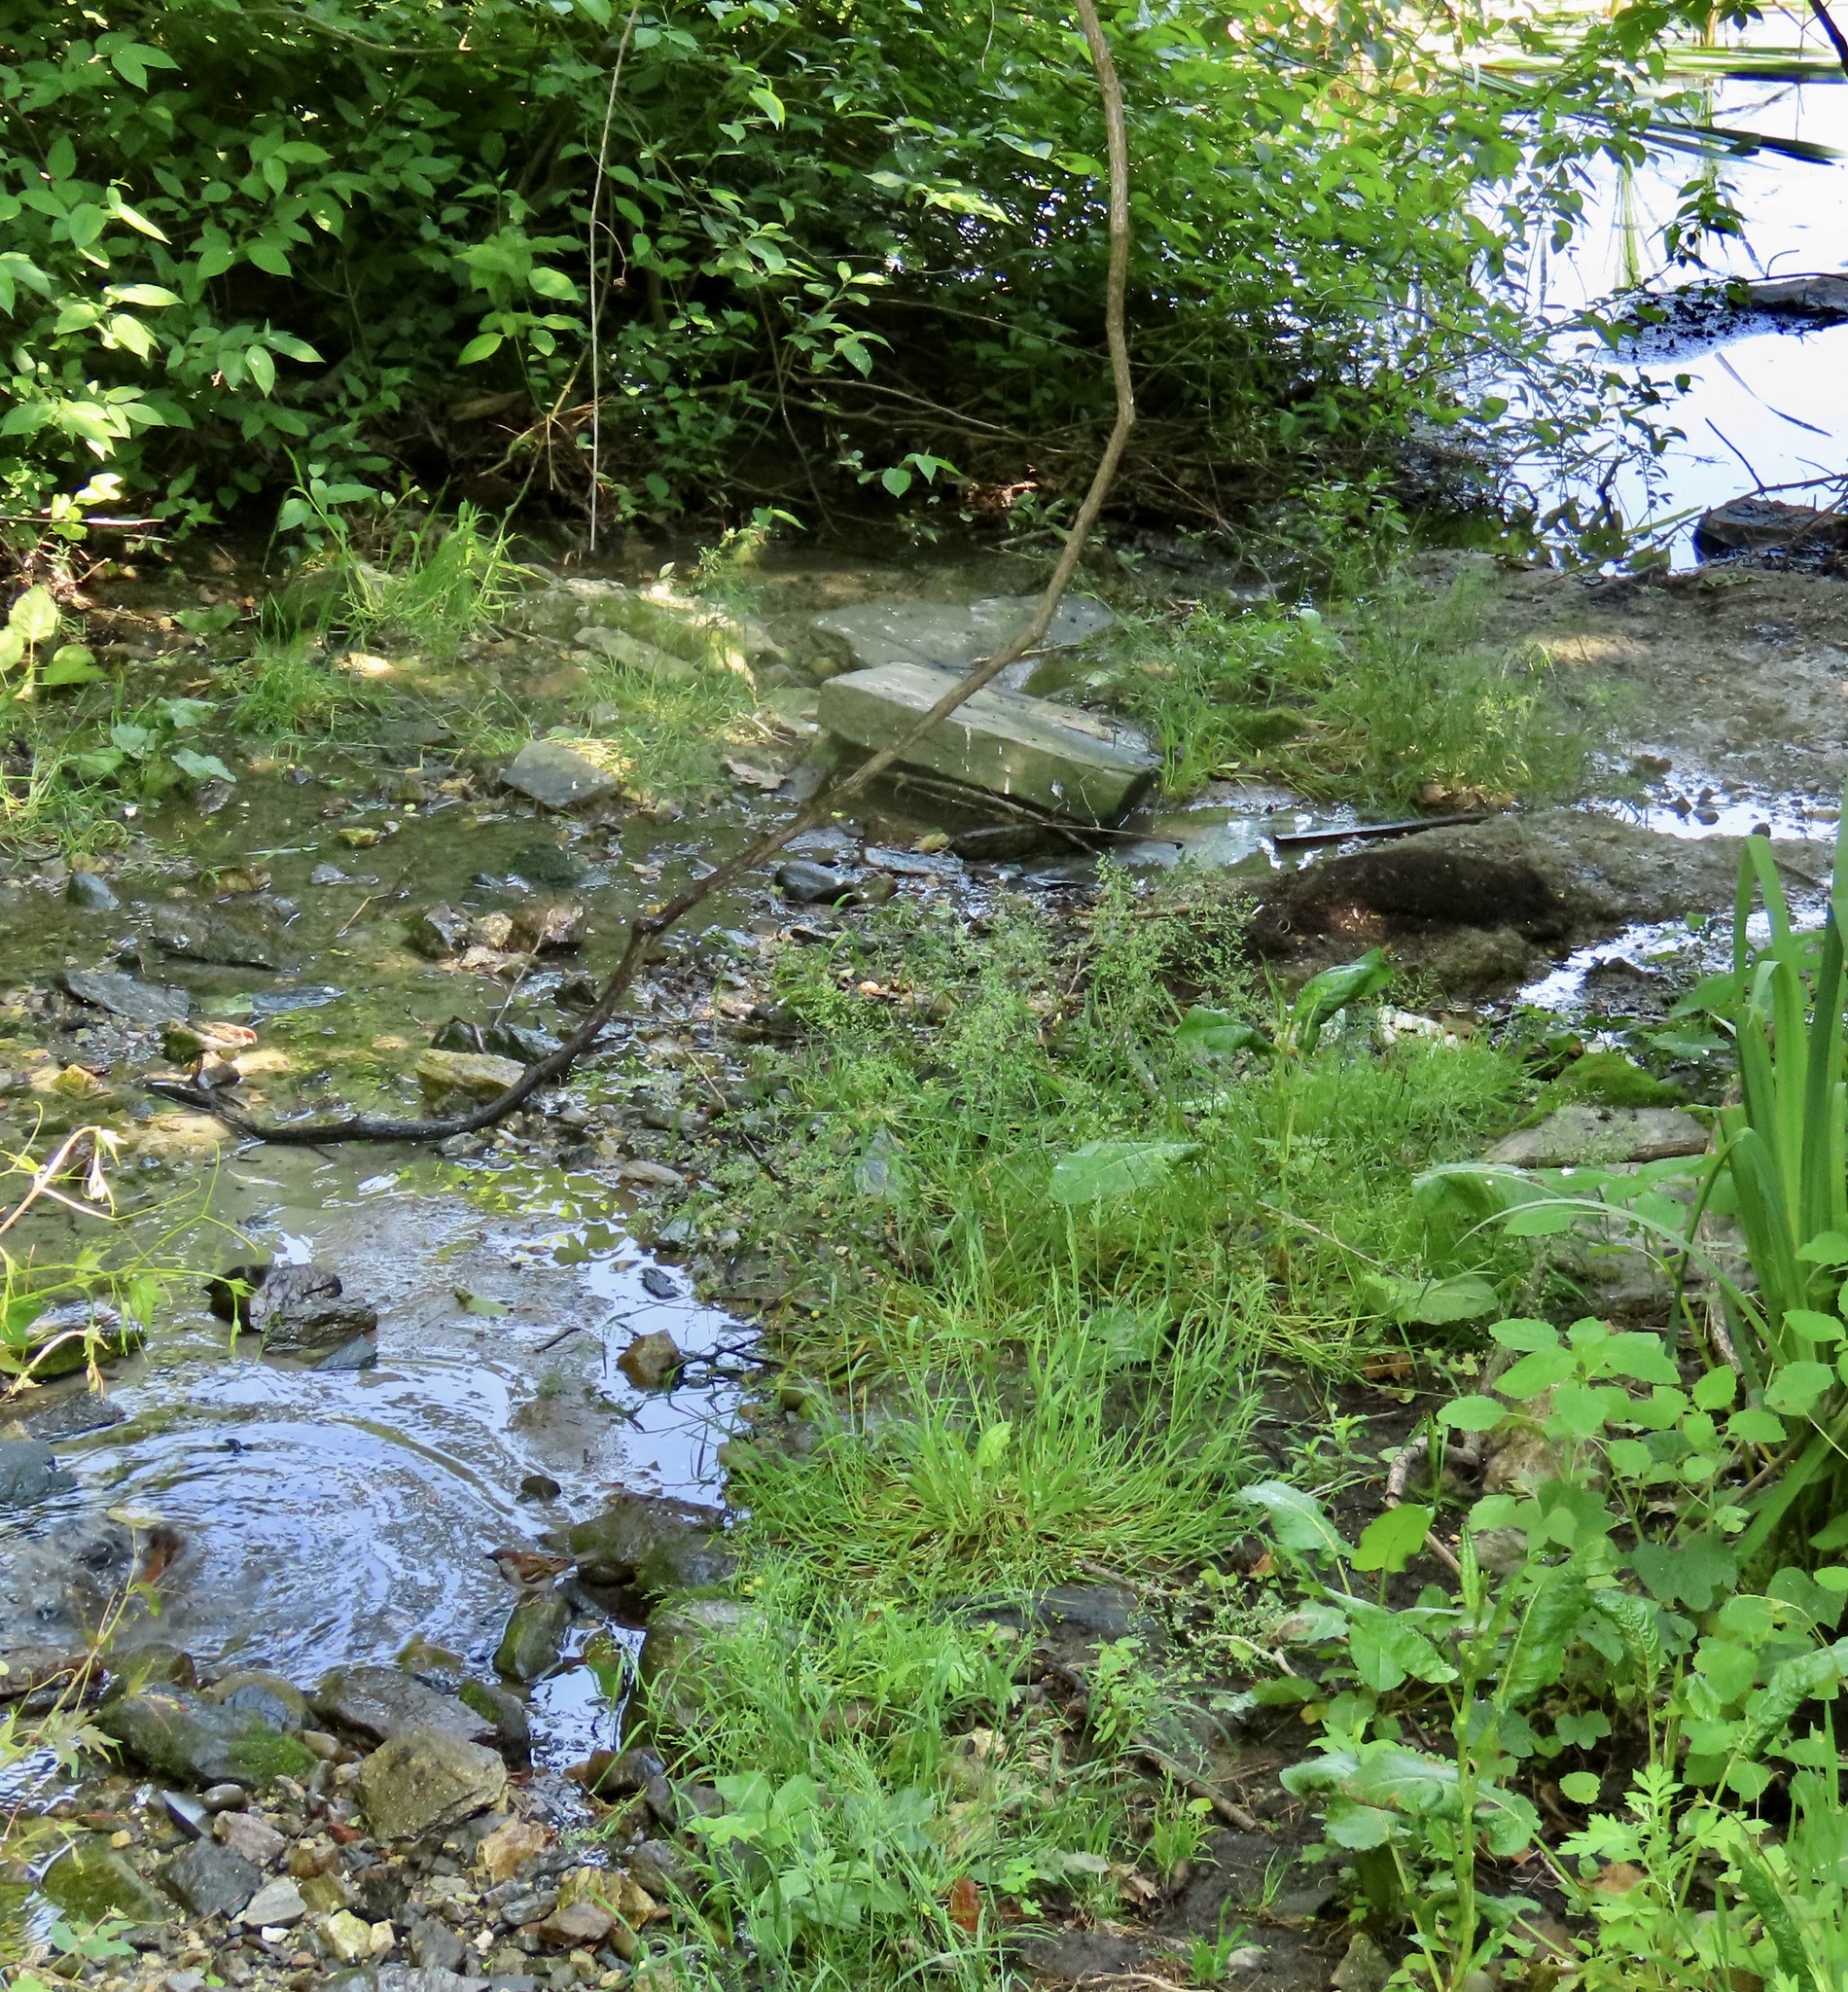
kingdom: Animalia
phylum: Chordata
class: Aves
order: Passeriformes
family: Turdidae
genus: Turdus
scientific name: Turdus migratorius
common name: American robin
